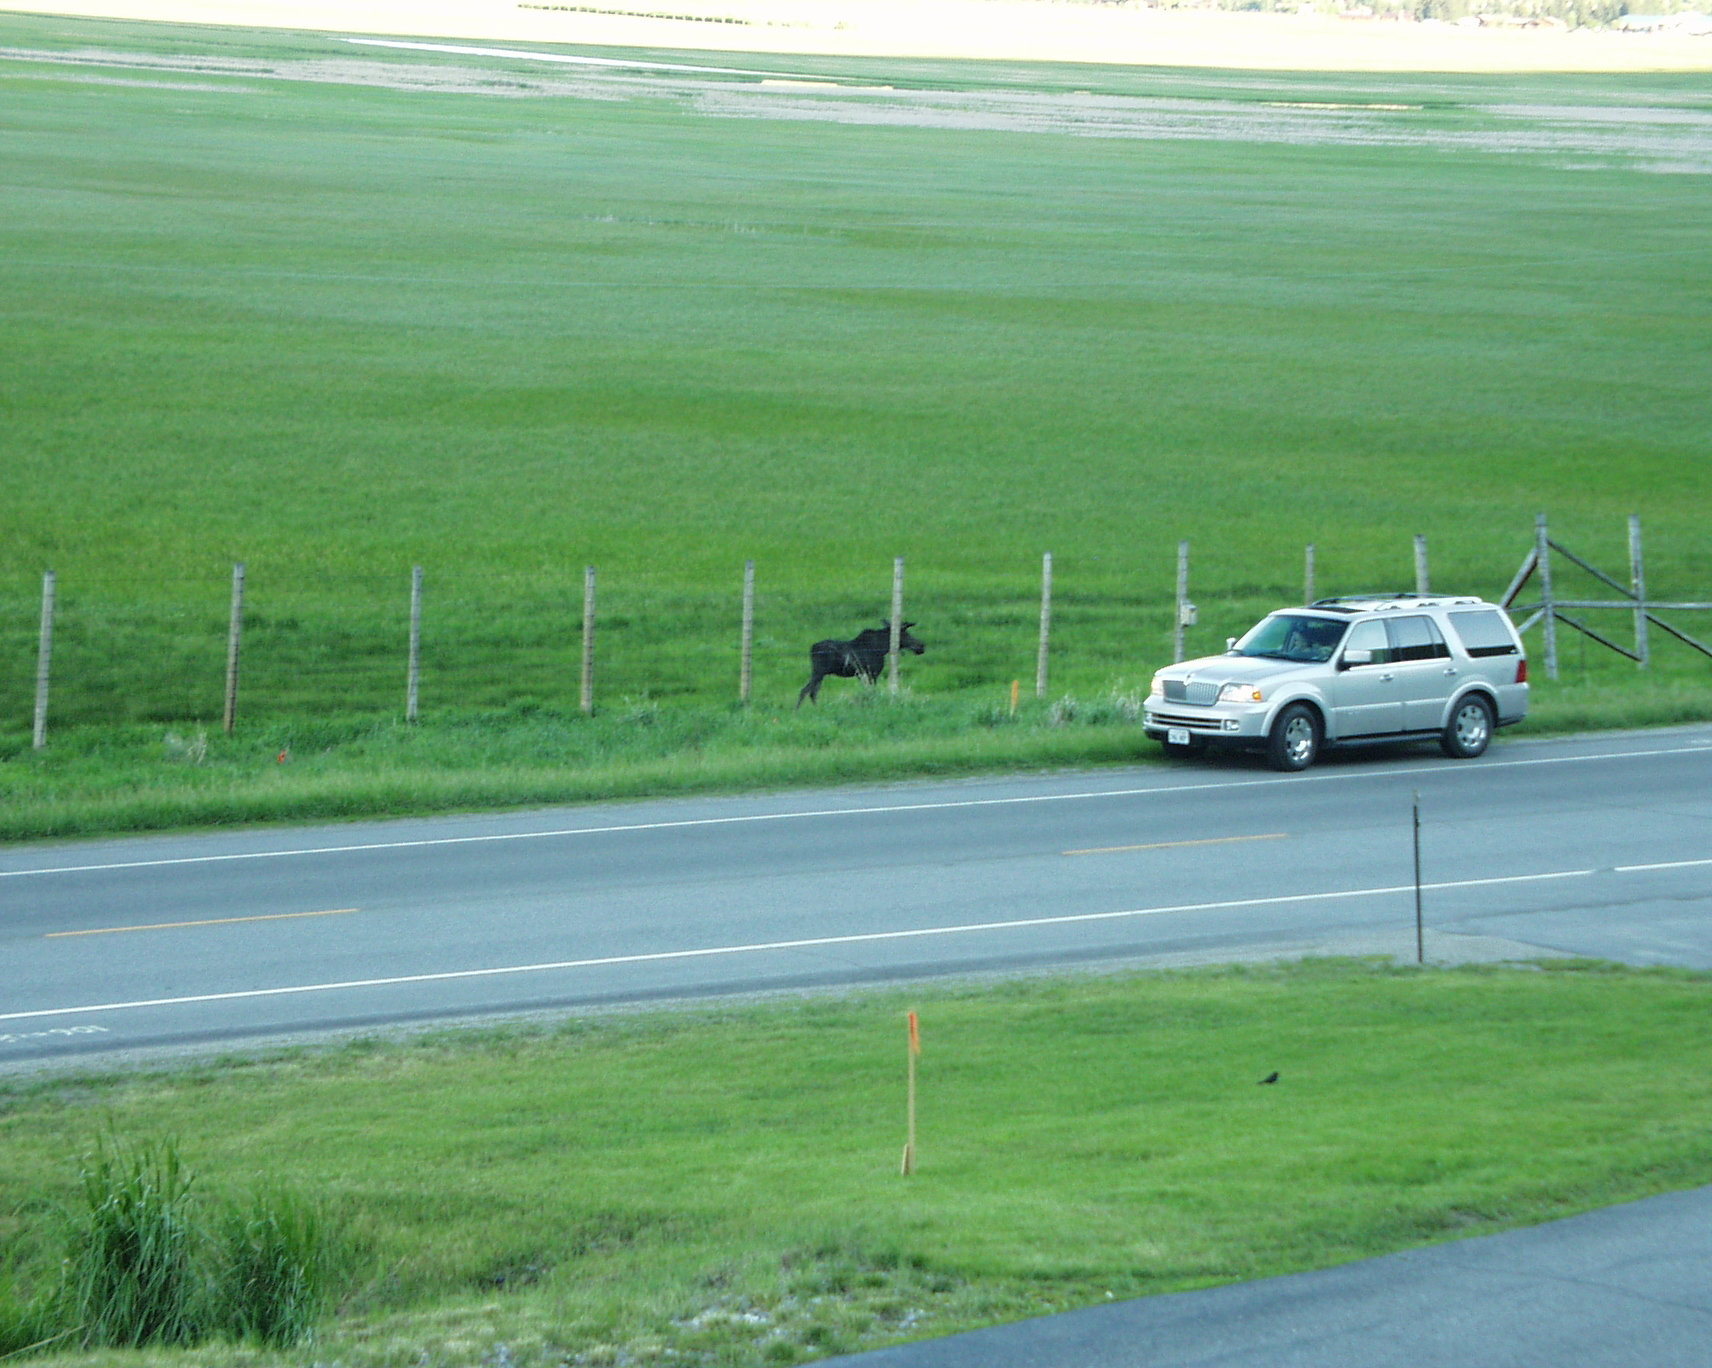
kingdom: Animalia
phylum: Chordata
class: Mammalia
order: Artiodactyla
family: Cervidae
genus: Alces
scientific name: Alces alces
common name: Moose
